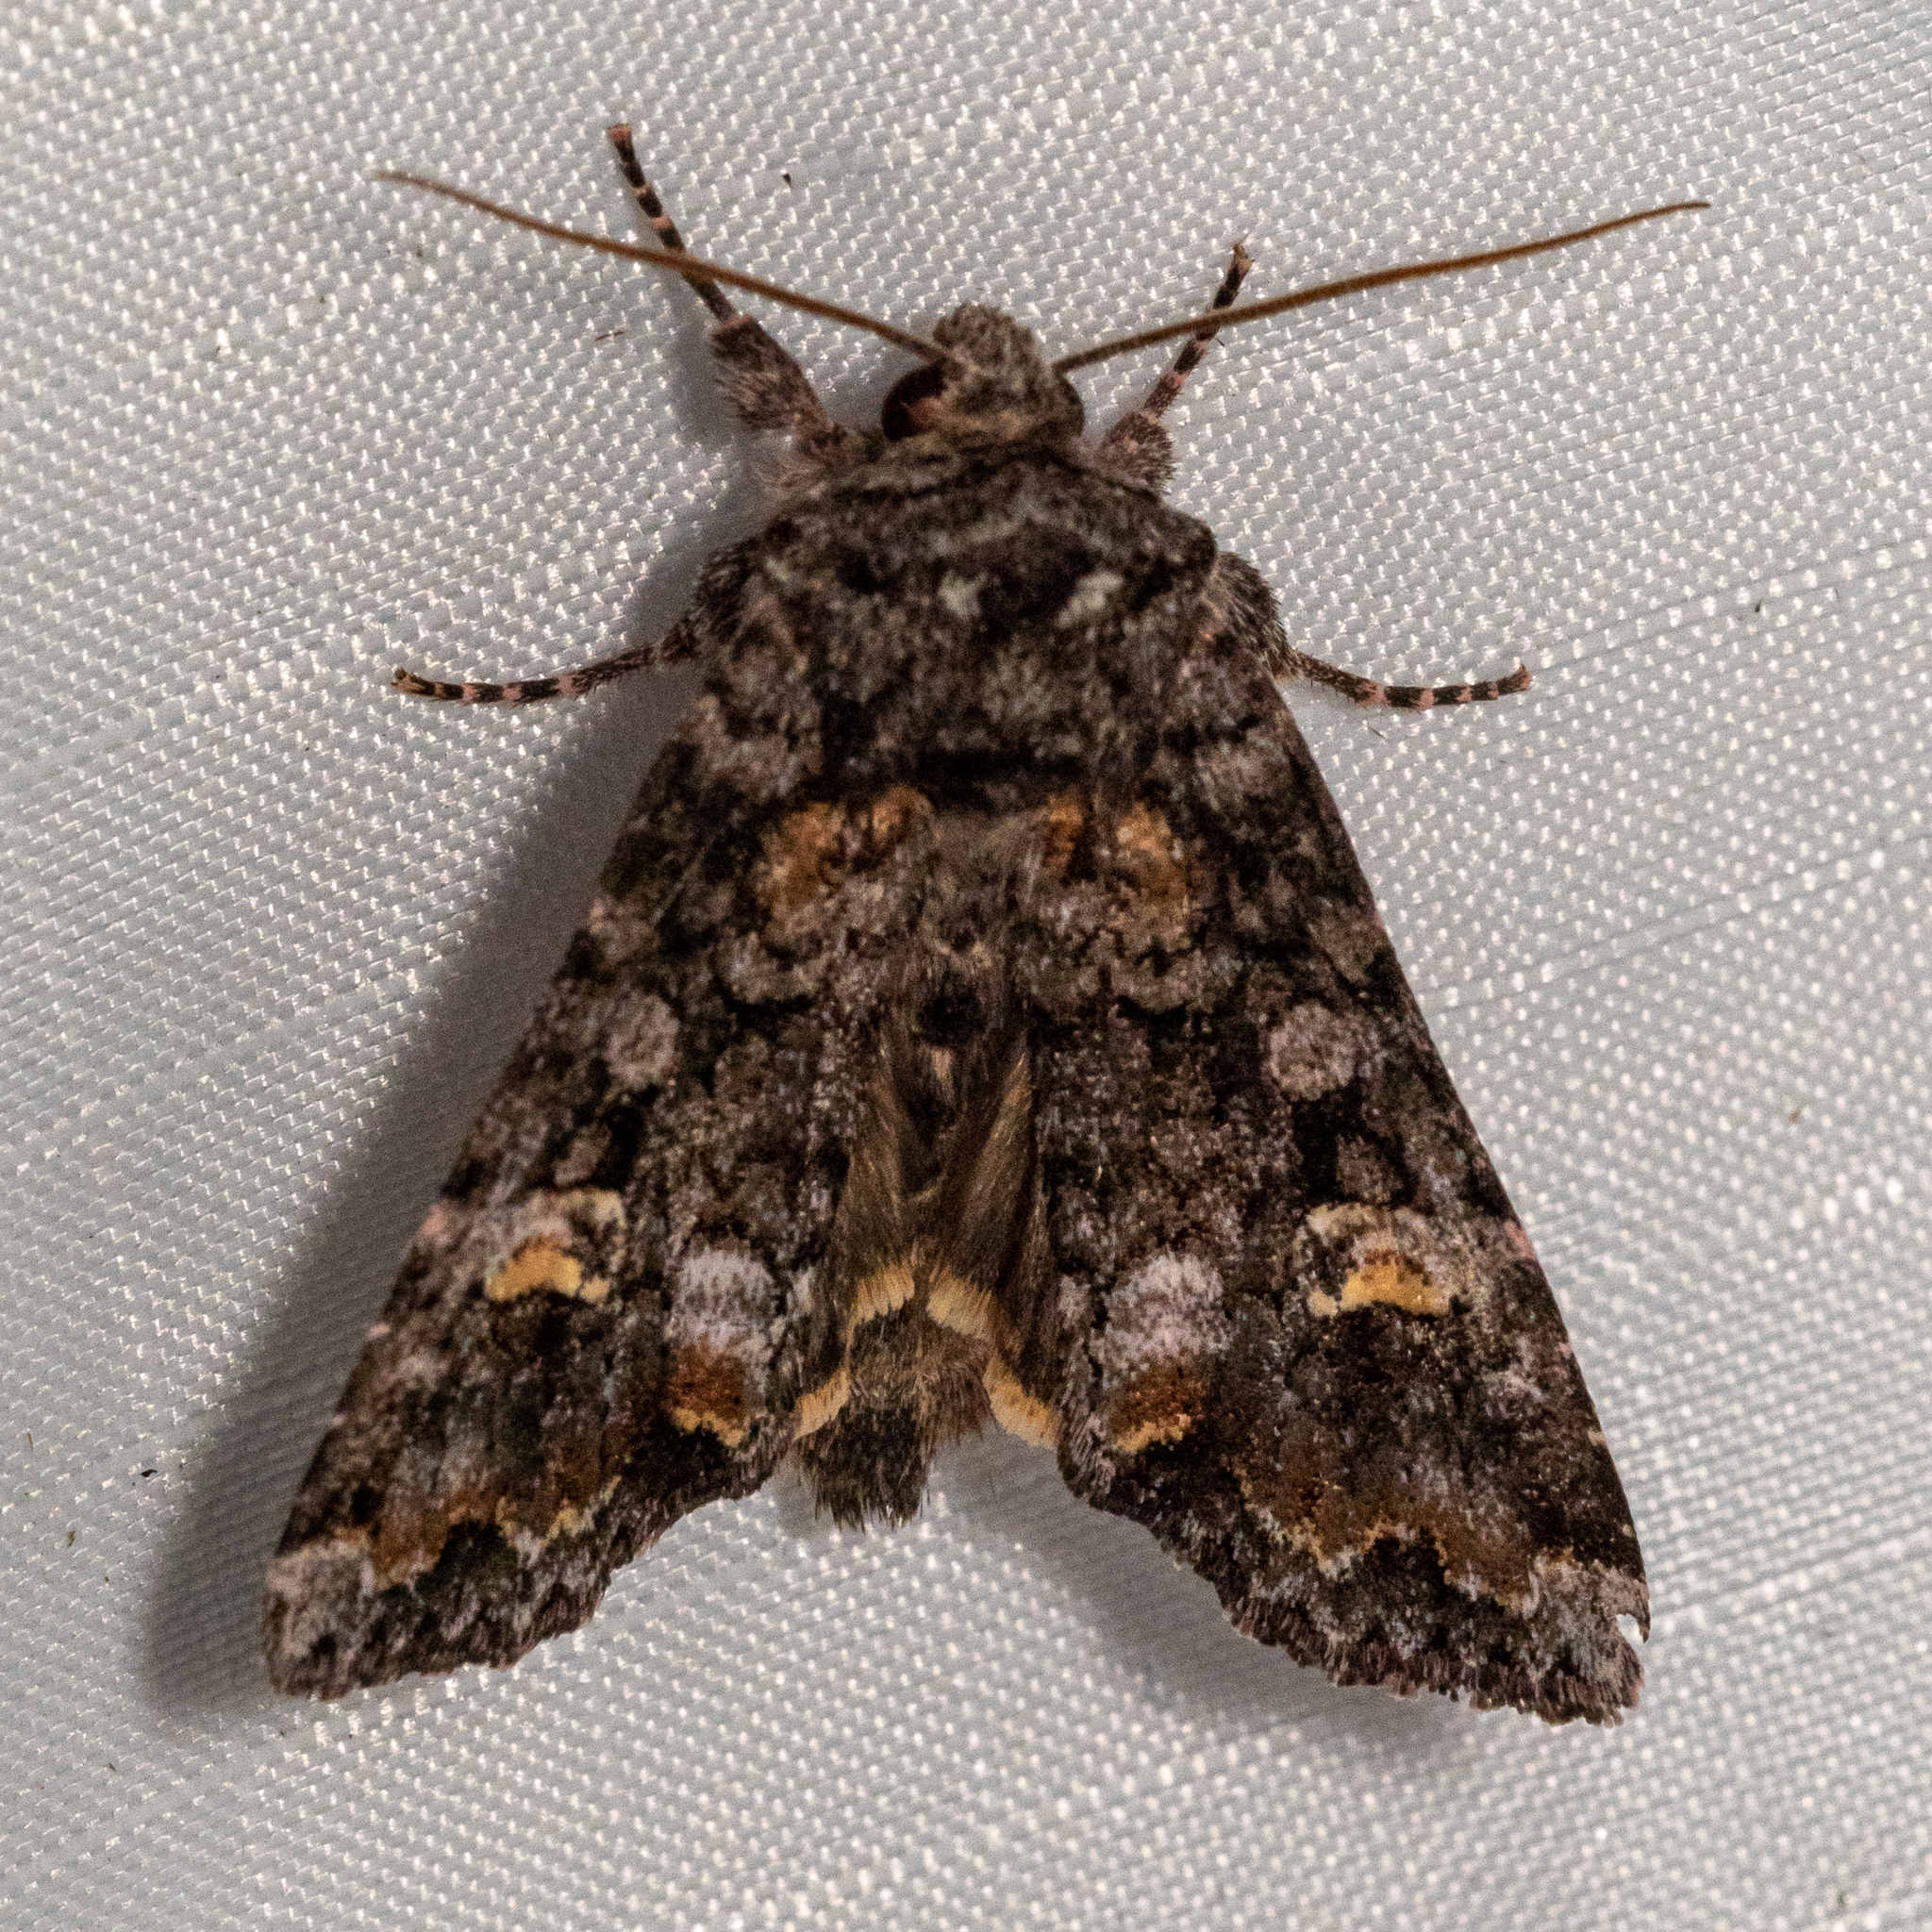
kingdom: Animalia
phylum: Arthropoda
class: Insecta
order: Lepidoptera
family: Noctuidae
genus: Spiramater
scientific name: Spiramater lutra
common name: Otter spiramater moth
